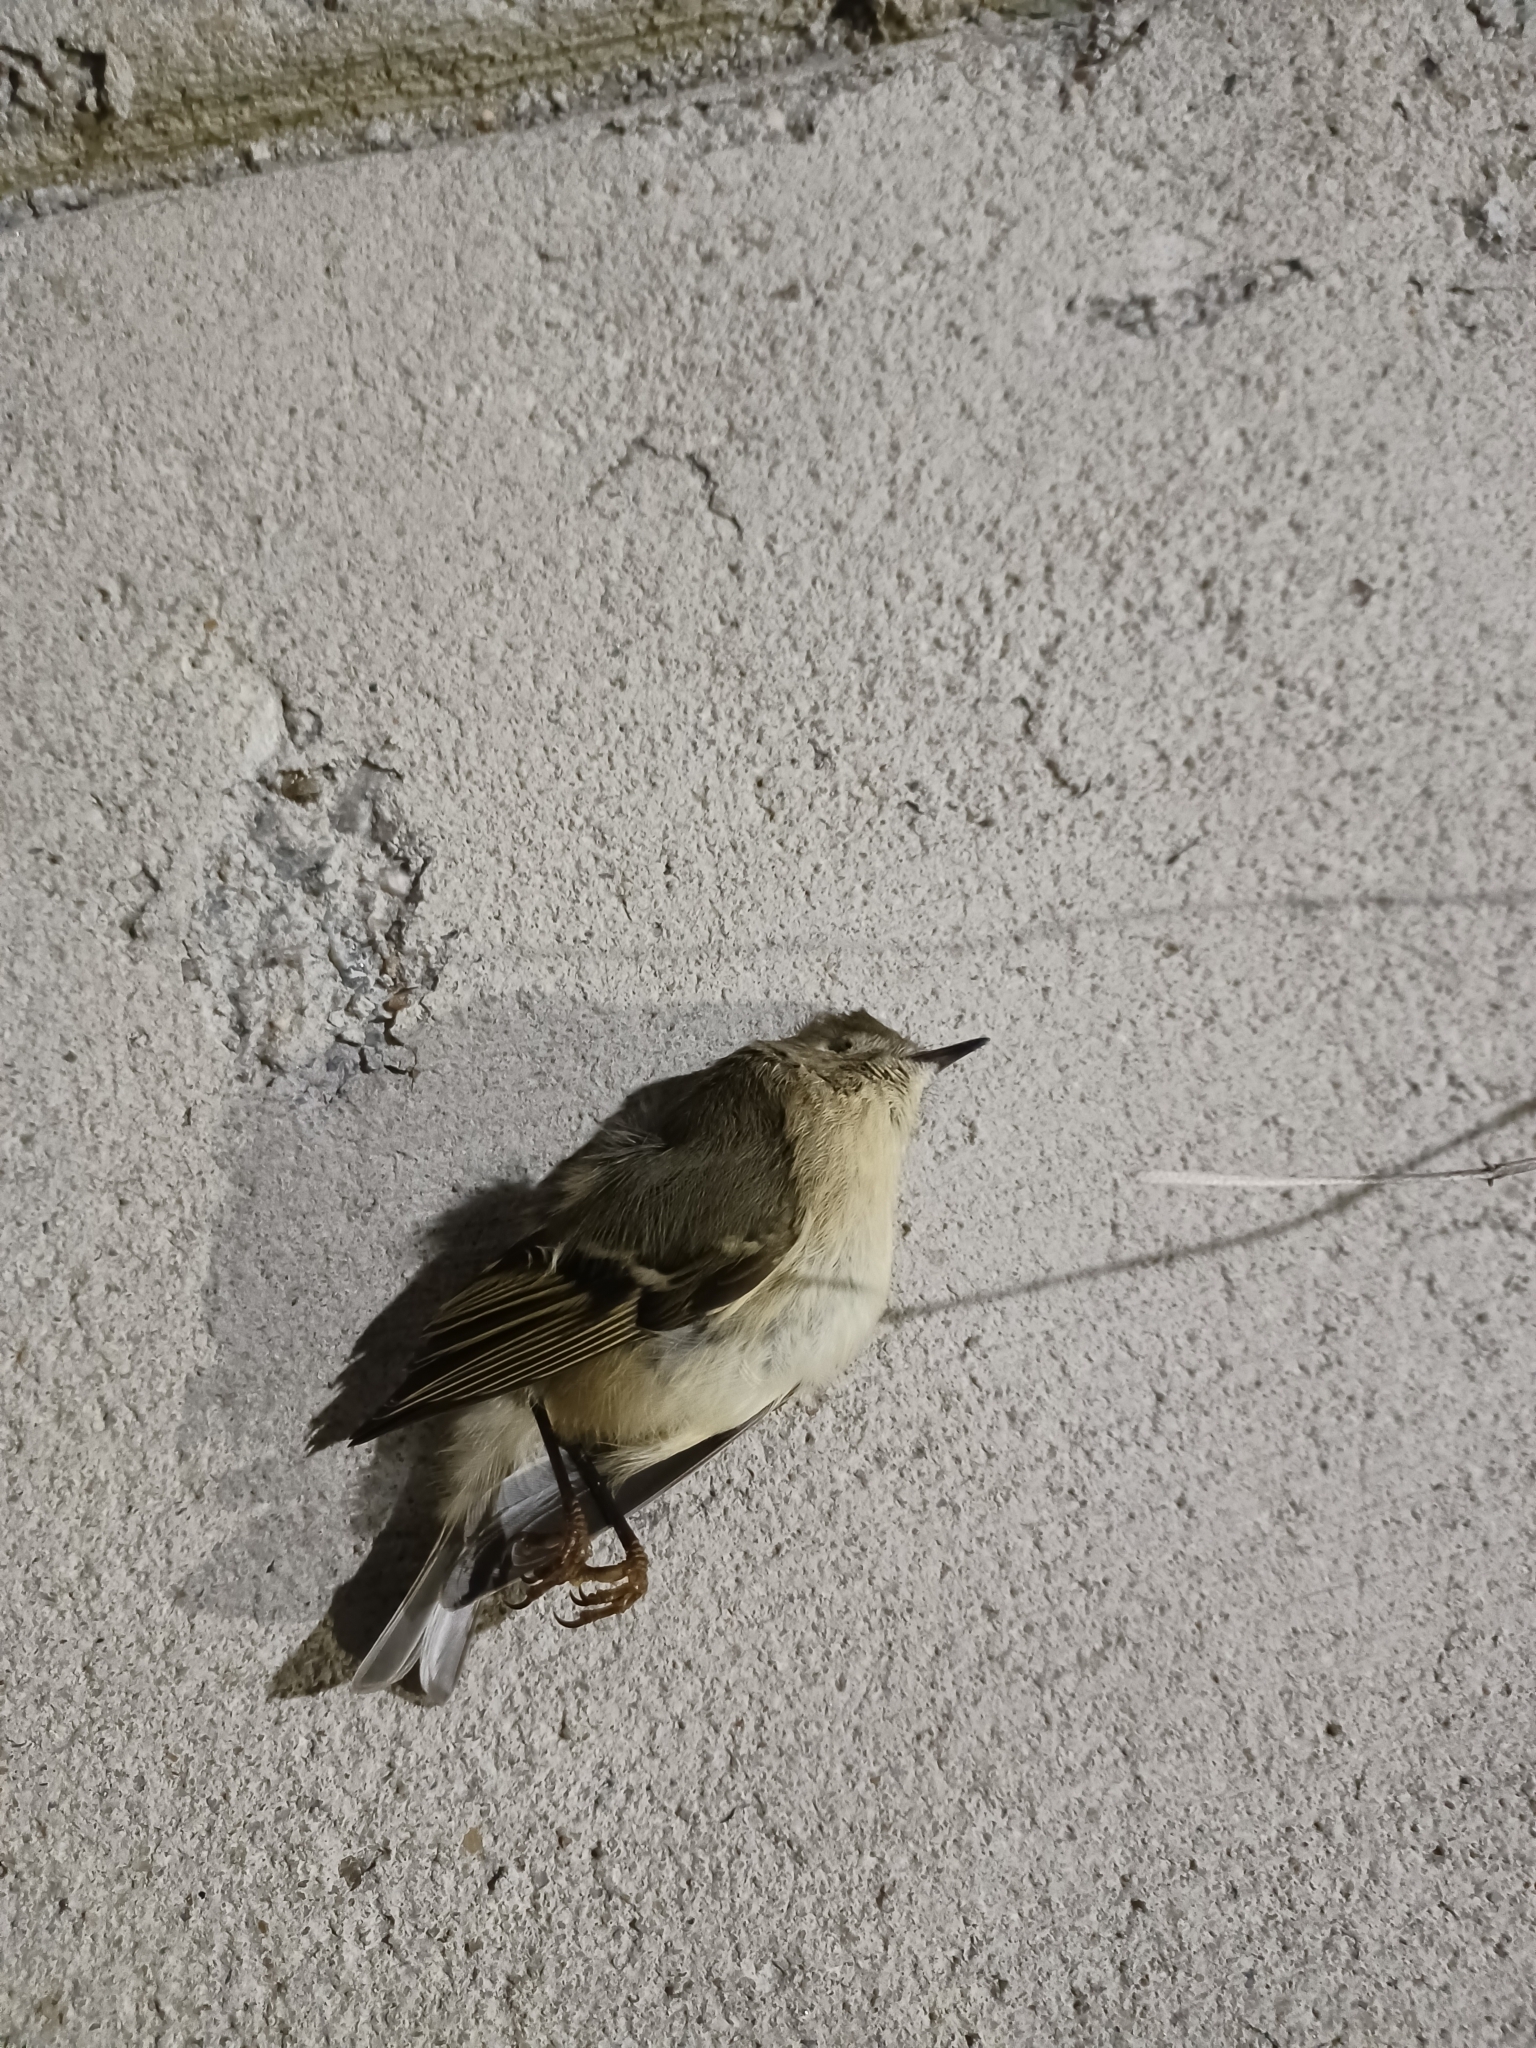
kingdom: Animalia
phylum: Chordata
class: Aves
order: Passeriformes
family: Regulidae
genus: Regulus
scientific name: Regulus calendula
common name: Ruby-crowned kinglet
